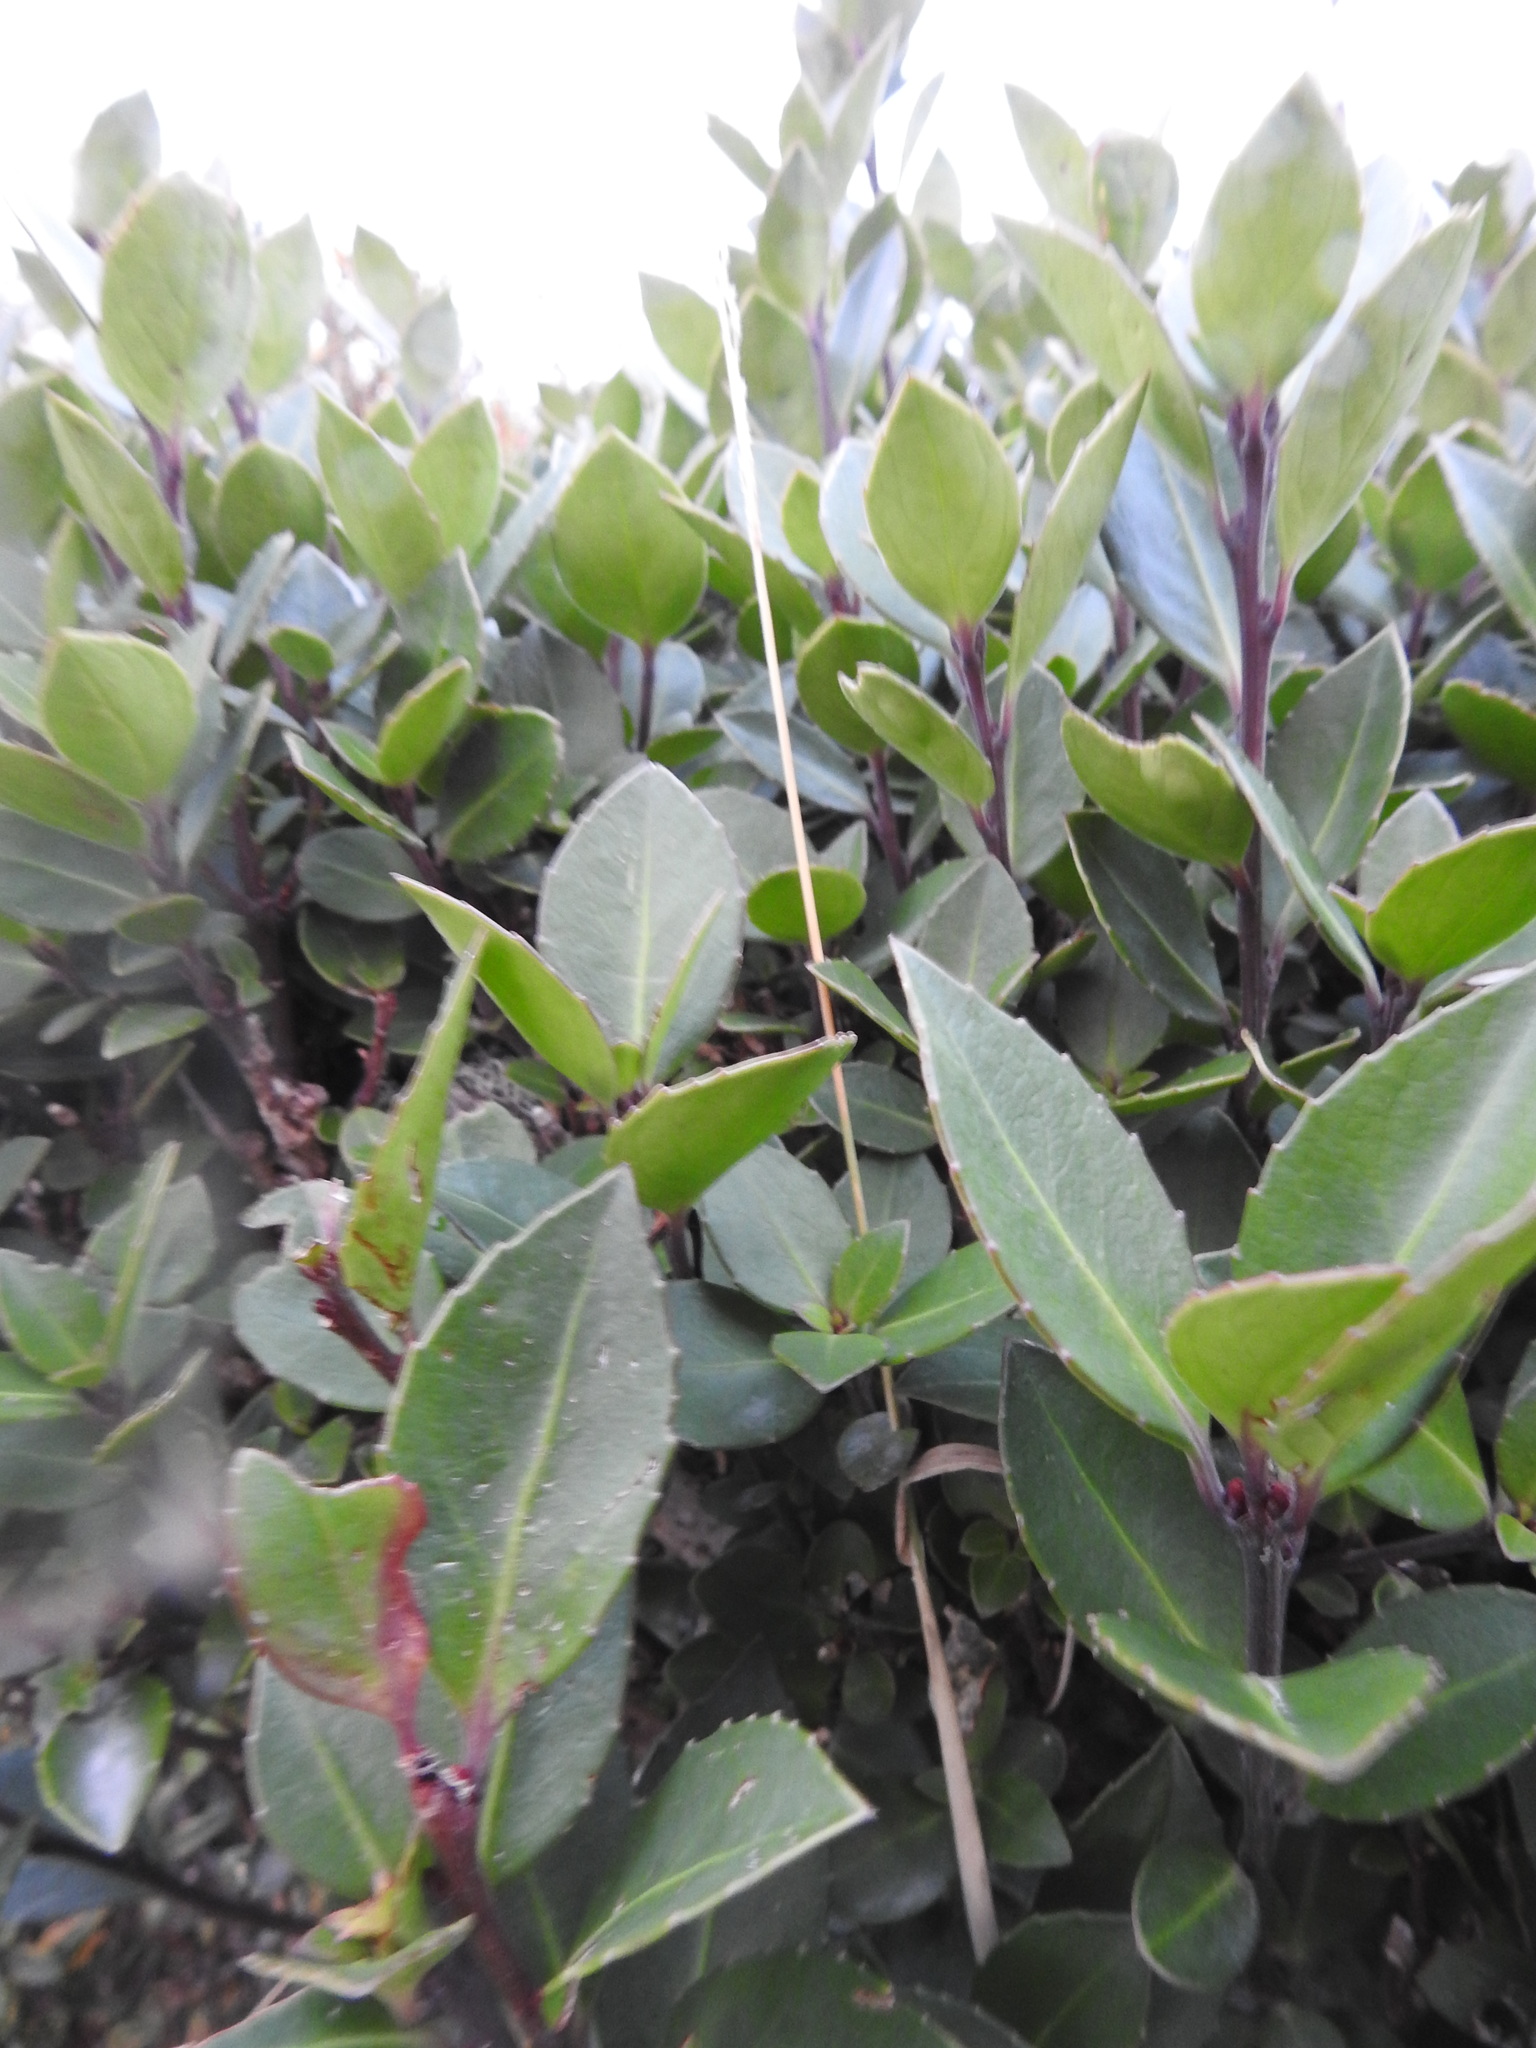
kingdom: Plantae
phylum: Tracheophyta
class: Magnoliopsida
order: Celastrales
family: Celastraceae
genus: Maytenus
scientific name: Maytenus magellanica
